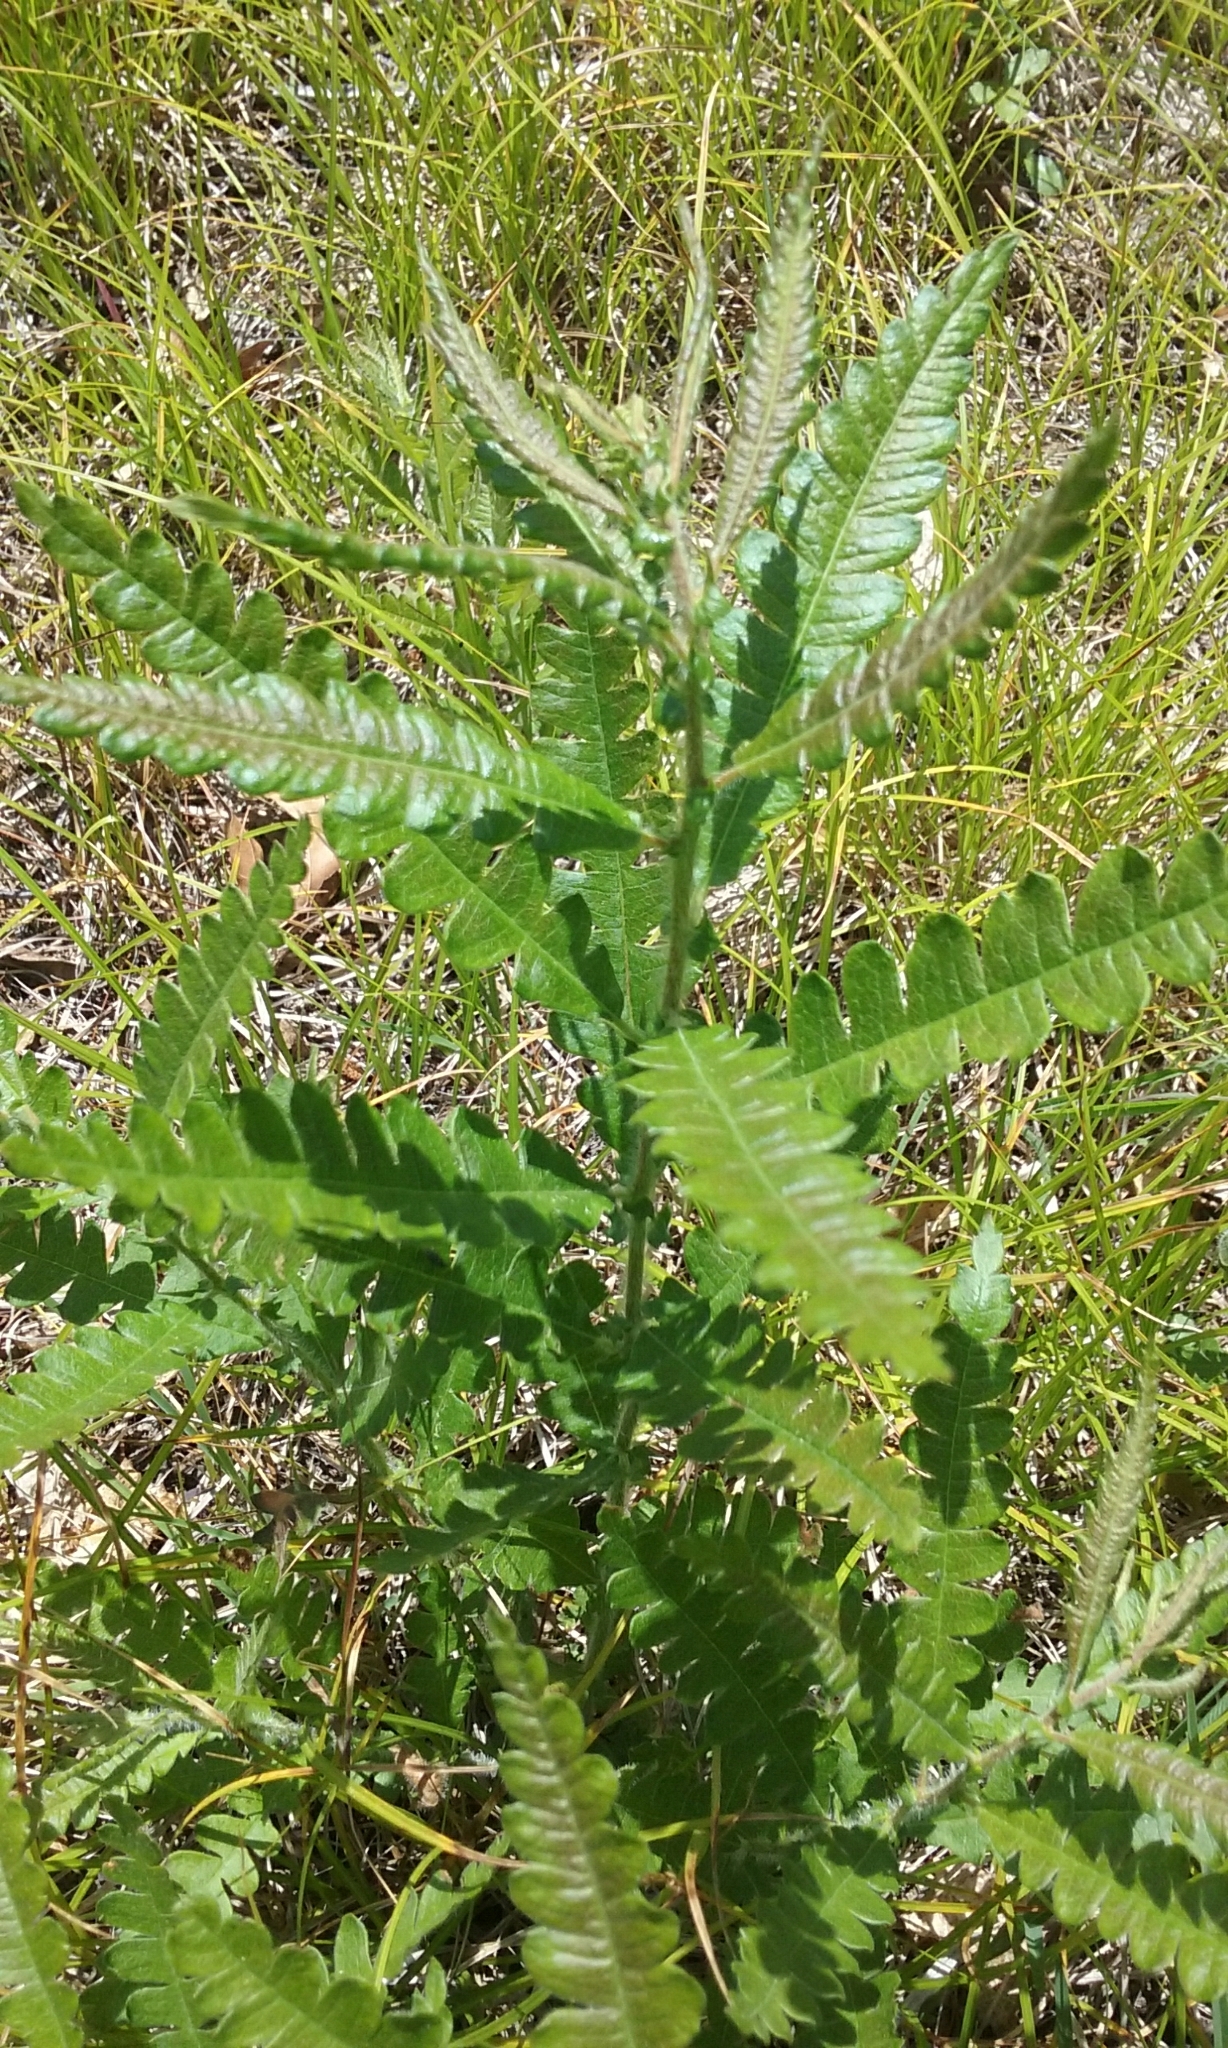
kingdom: Plantae
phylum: Tracheophyta
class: Magnoliopsida
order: Fagales
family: Myricaceae
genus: Comptonia
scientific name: Comptonia peregrina
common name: Sweet-fern
